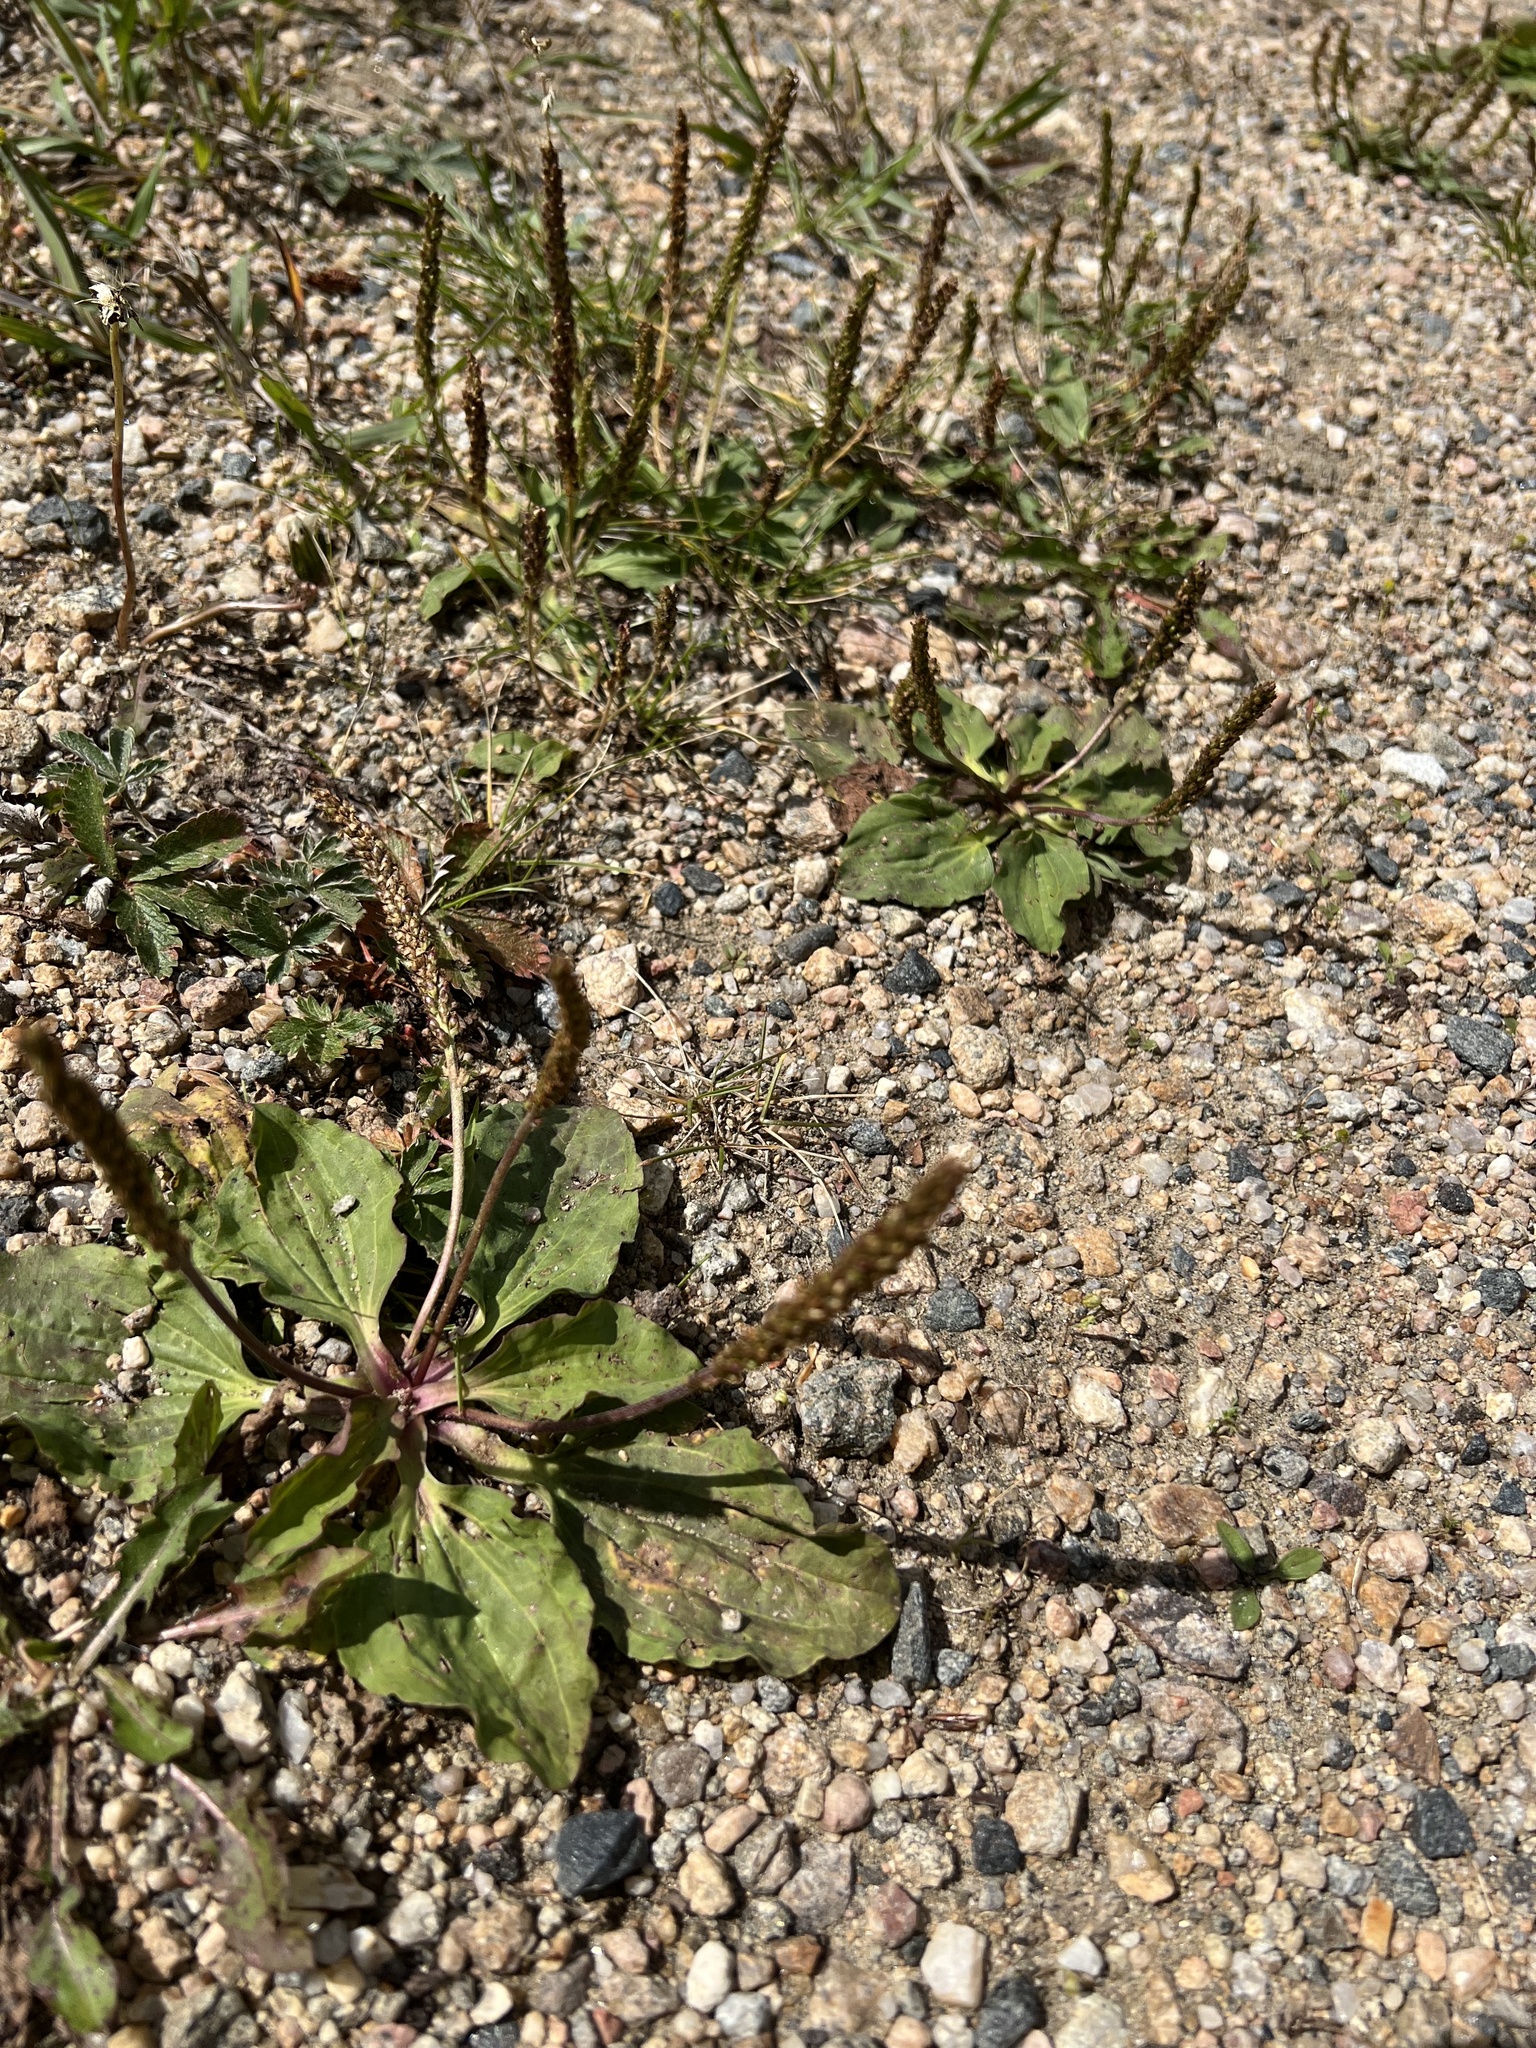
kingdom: Plantae
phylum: Tracheophyta
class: Magnoliopsida
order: Lamiales
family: Plantaginaceae
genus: Plantago
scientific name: Plantago major
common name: Common plantain
